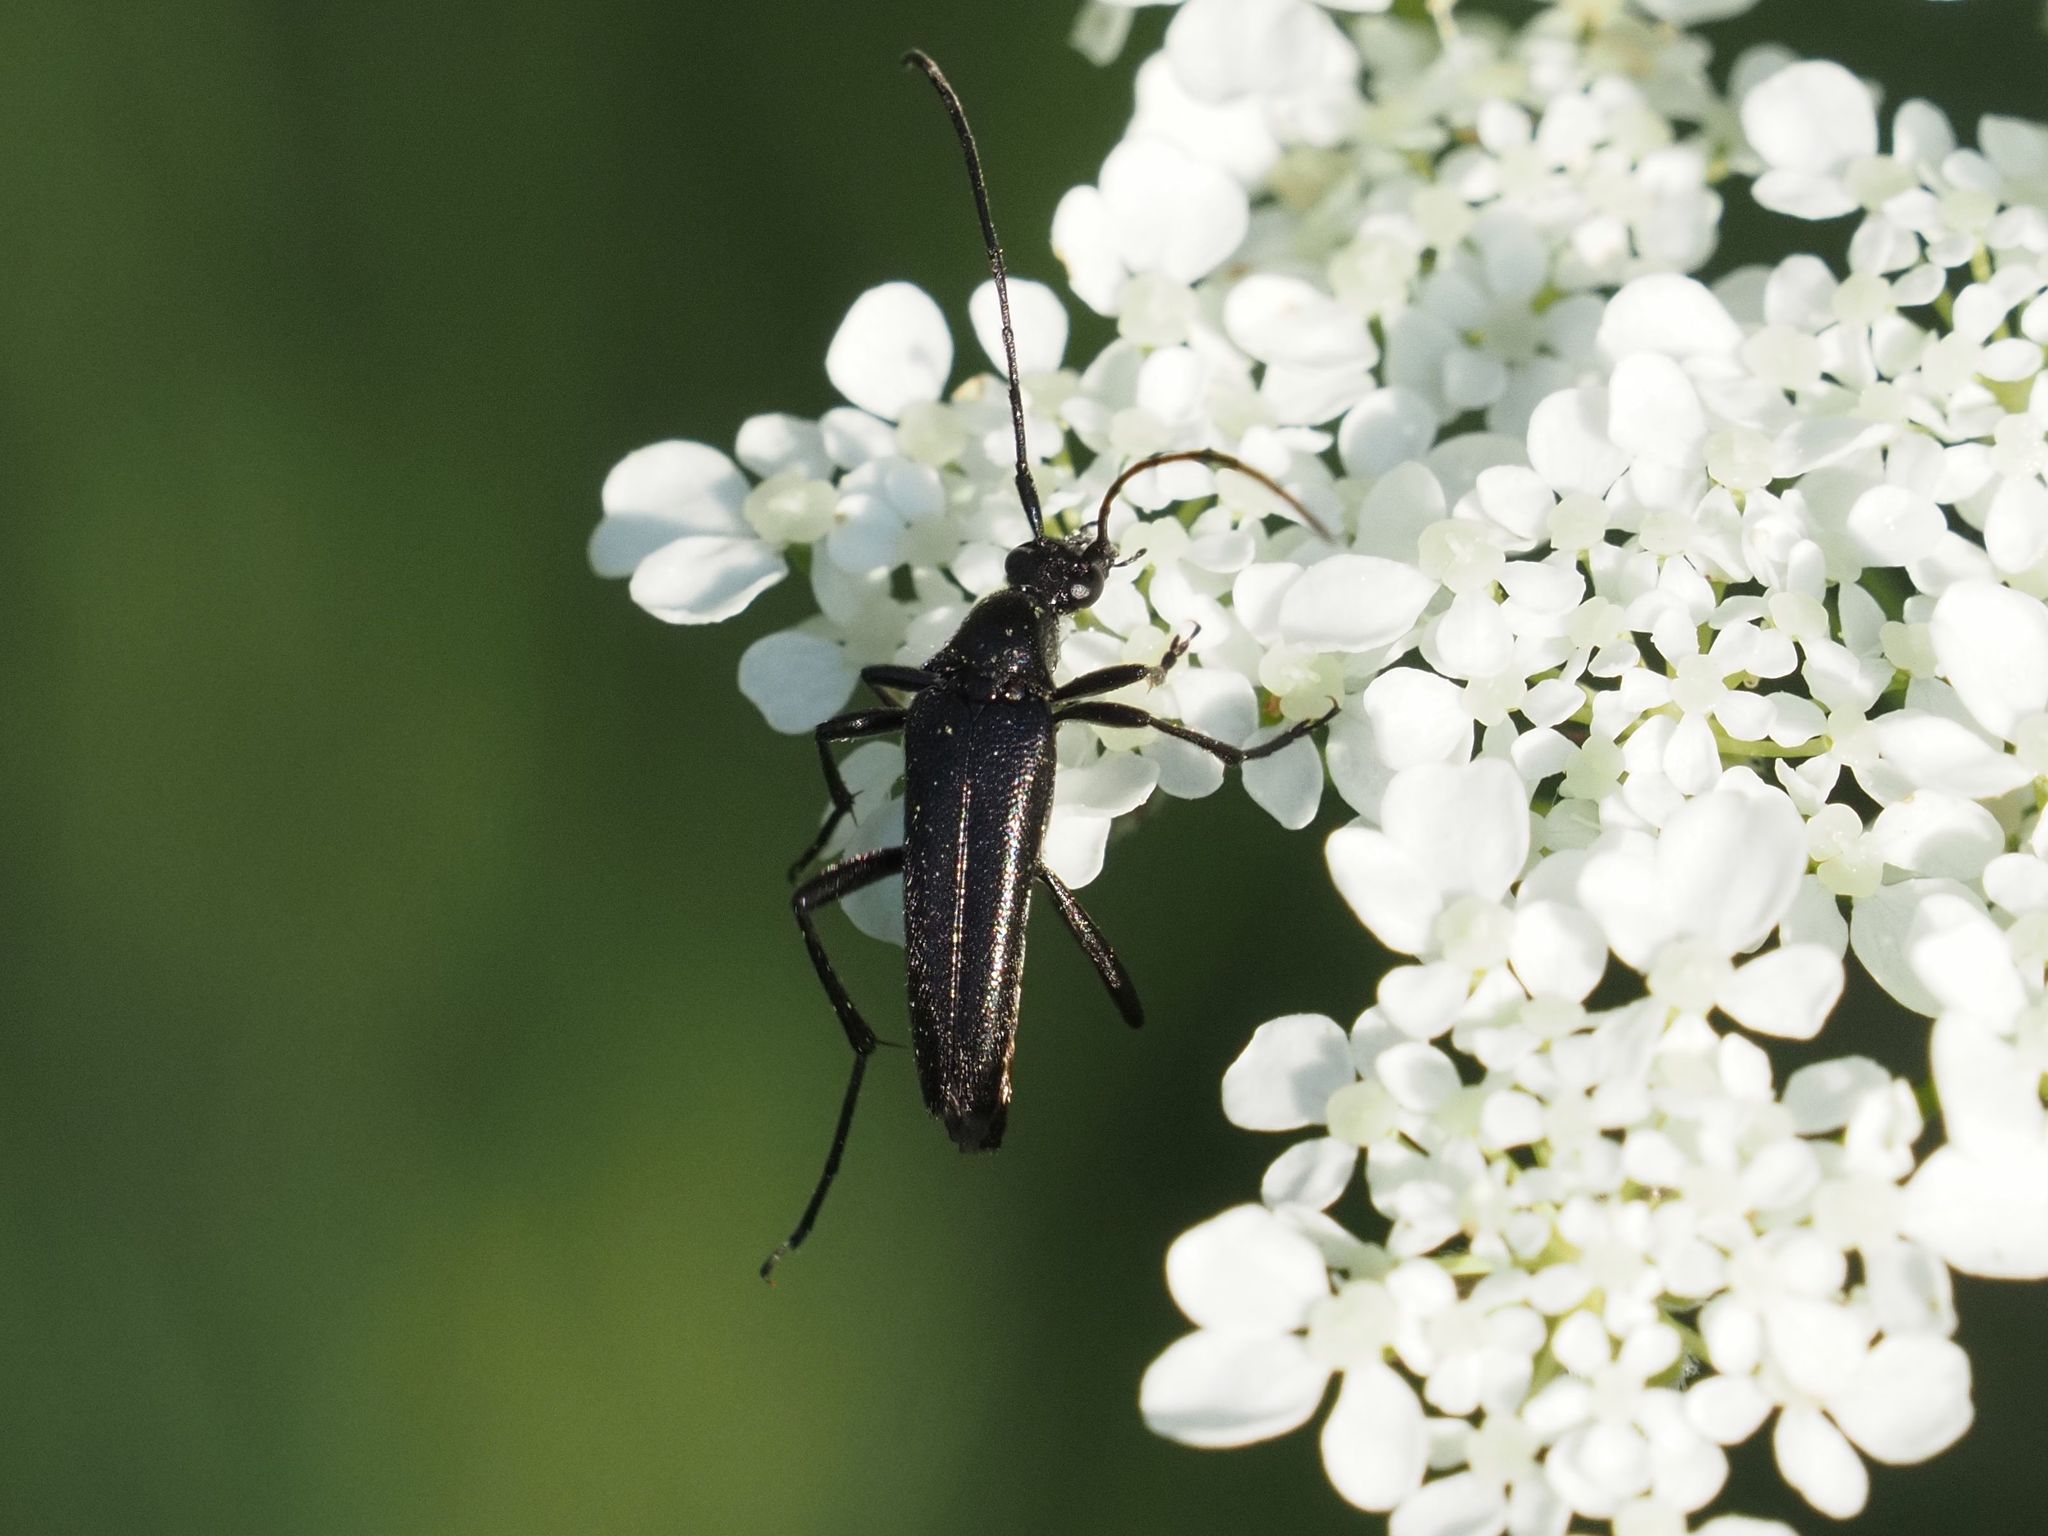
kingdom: Animalia
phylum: Arthropoda
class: Insecta
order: Coleoptera
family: Cerambycidae
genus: Stenurella
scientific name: Stenurella nigra
